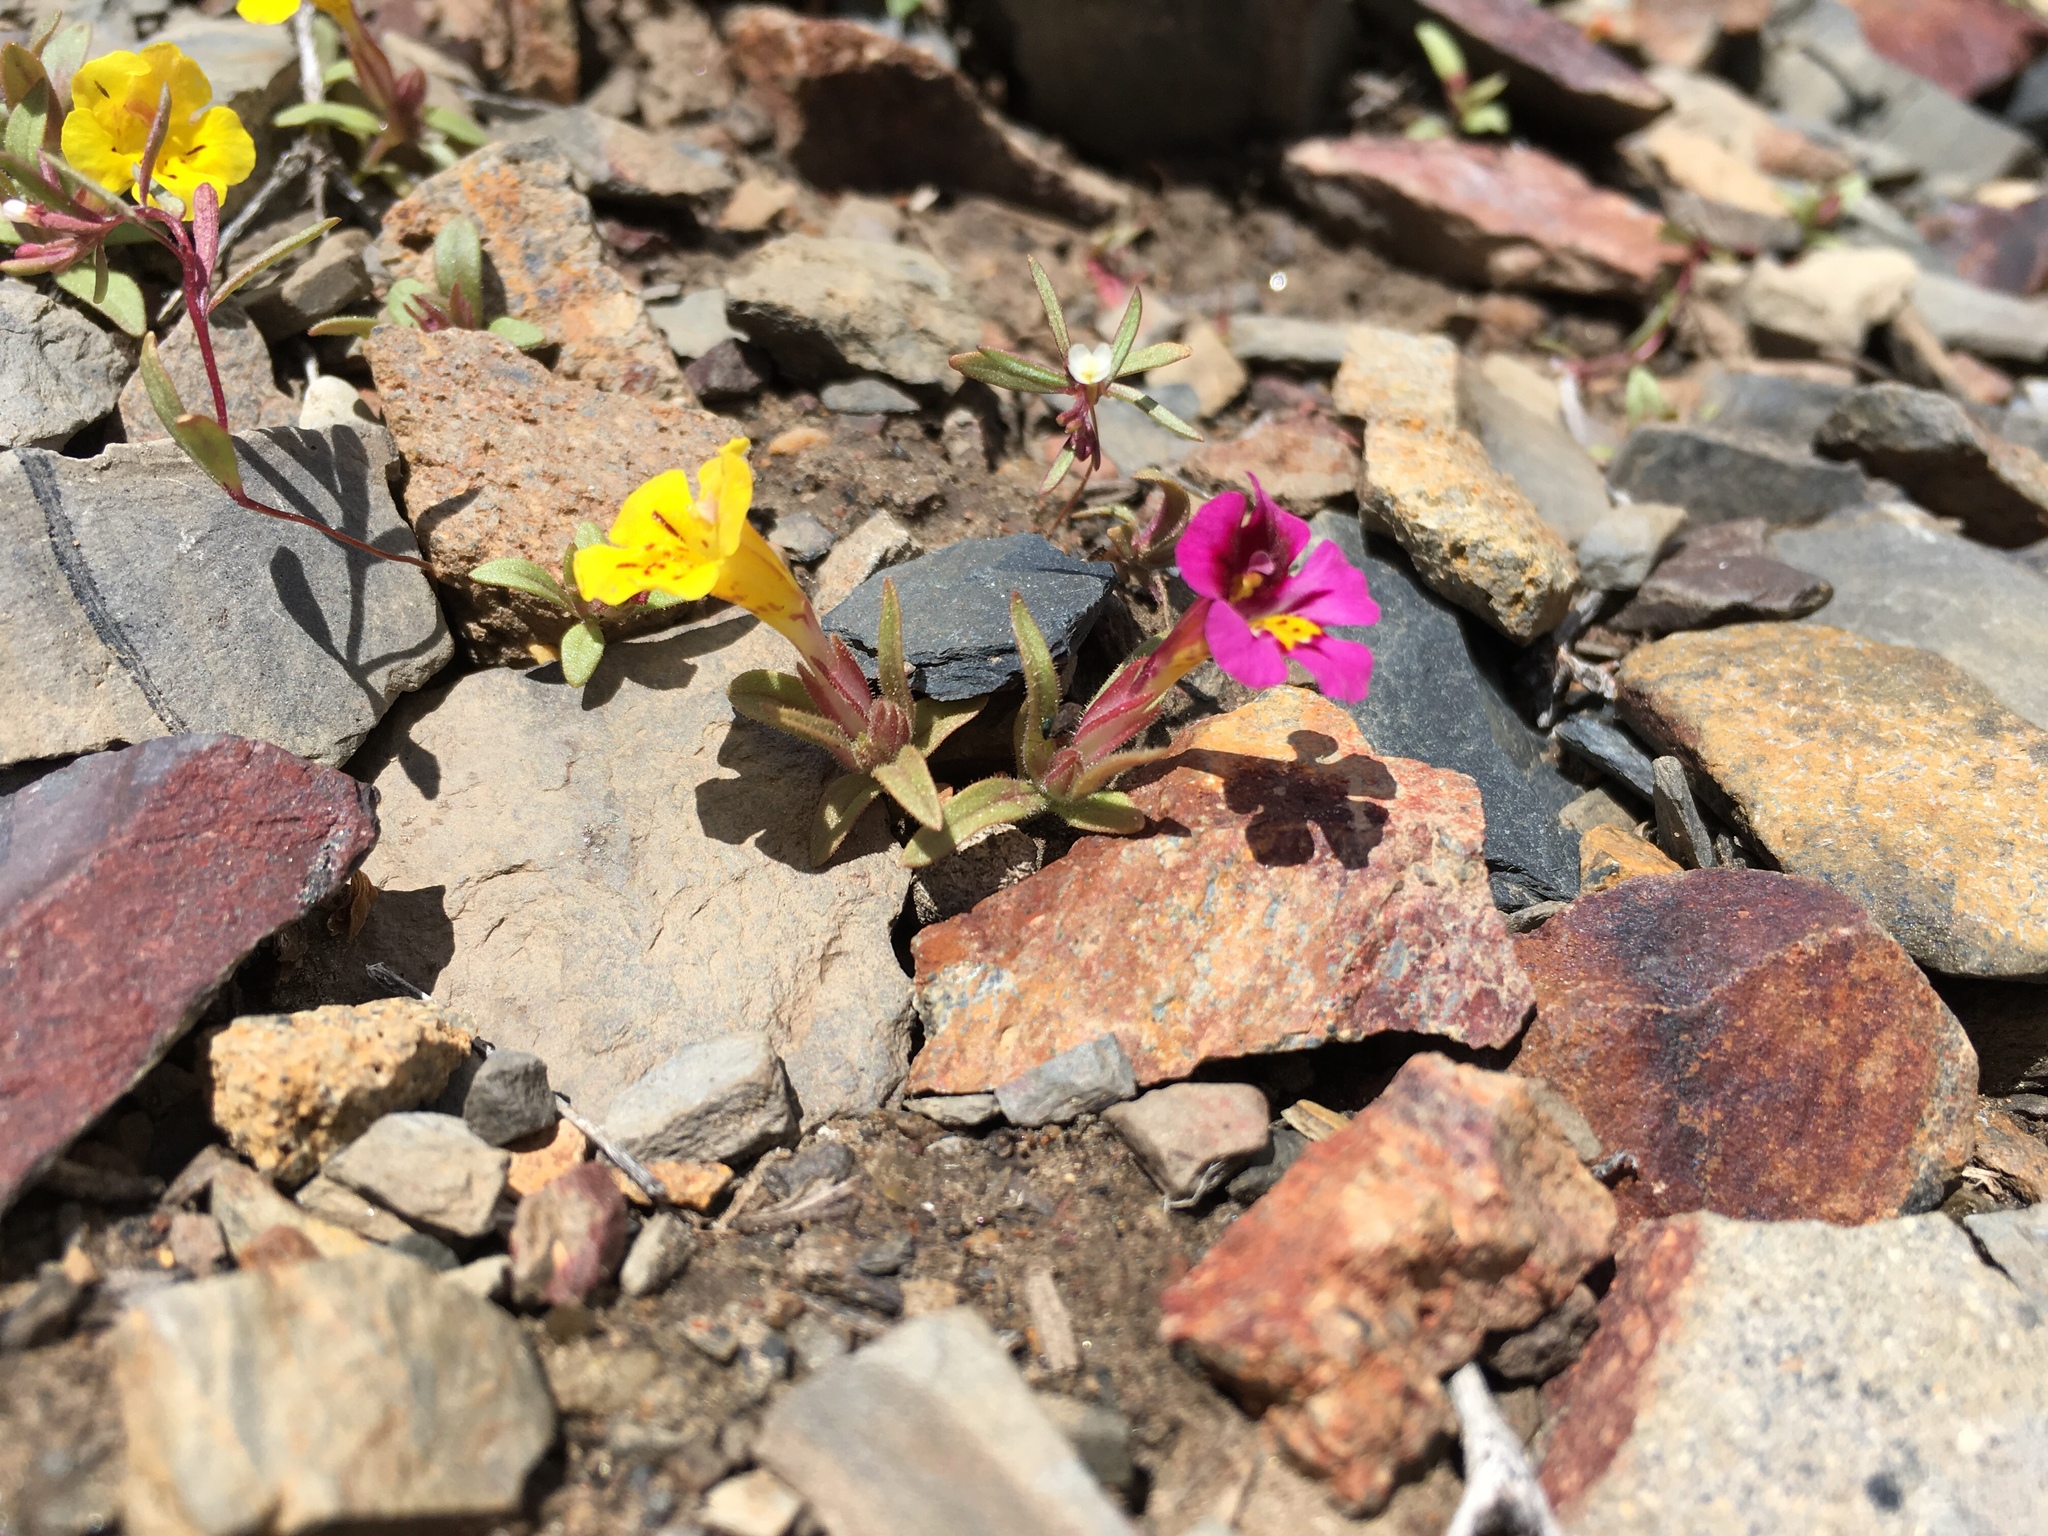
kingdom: Plantae
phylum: Tracheophyta
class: Magnoliopsida
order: Lamiales
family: Phrymaceae
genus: Diplacus
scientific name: Diplacus mephiticus
